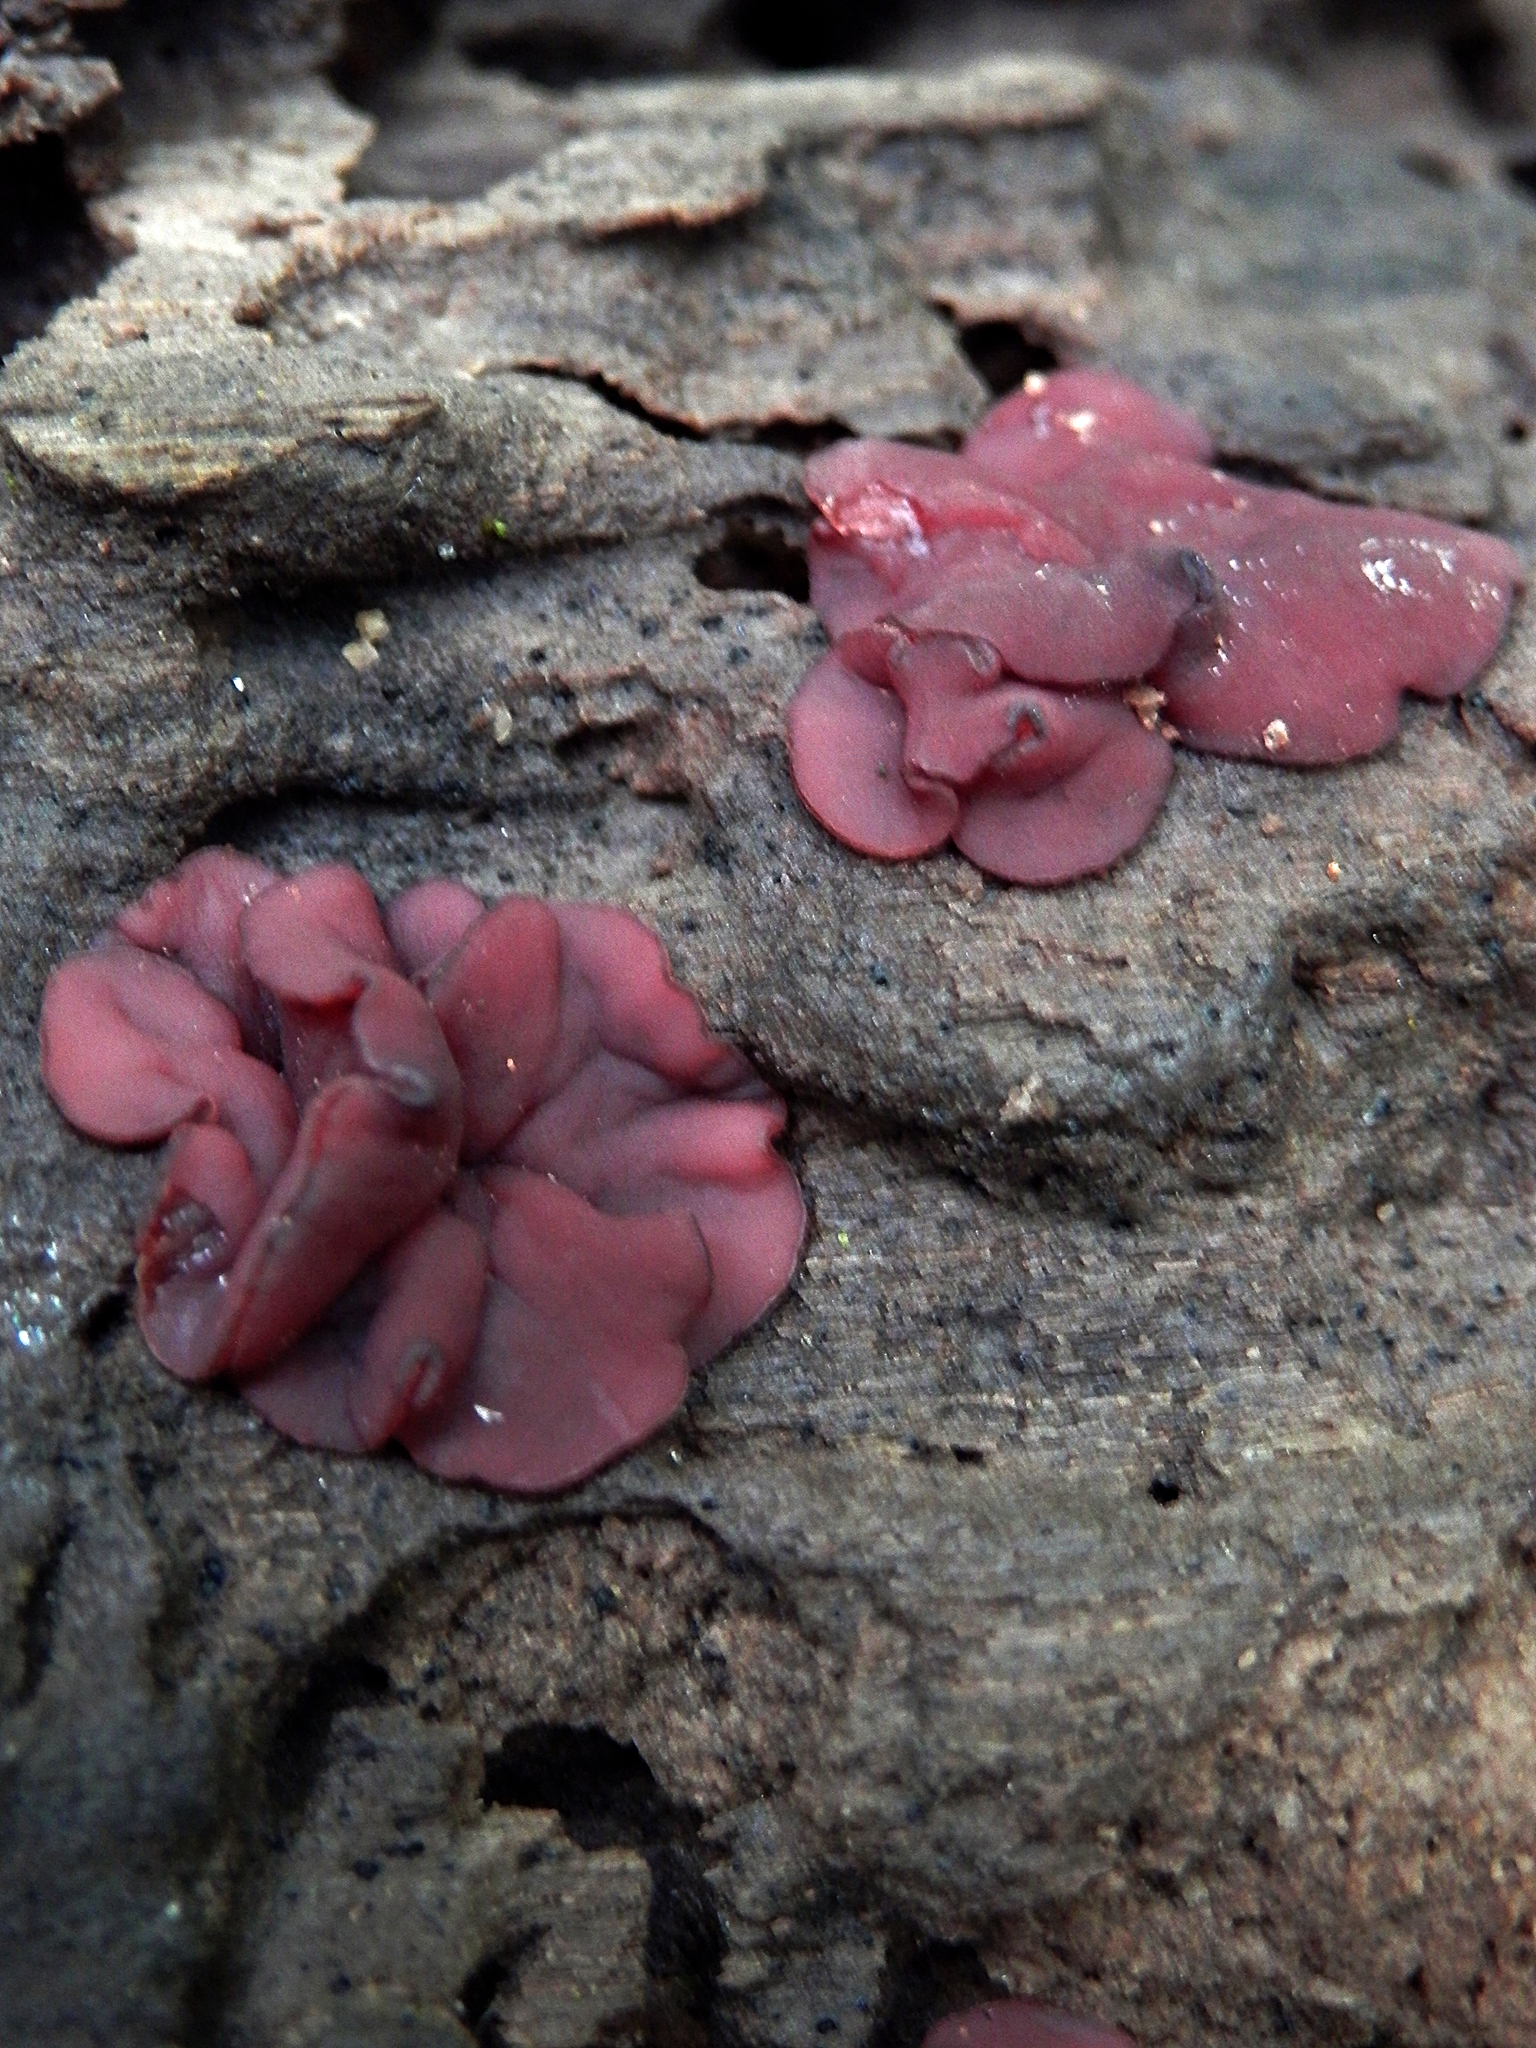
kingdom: Fungi
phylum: Ascomycota
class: Leotiomycetes
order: Helotiales
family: Gelatinodiscaceae
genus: Ascocoryne
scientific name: Ascocoryne cylichnium
